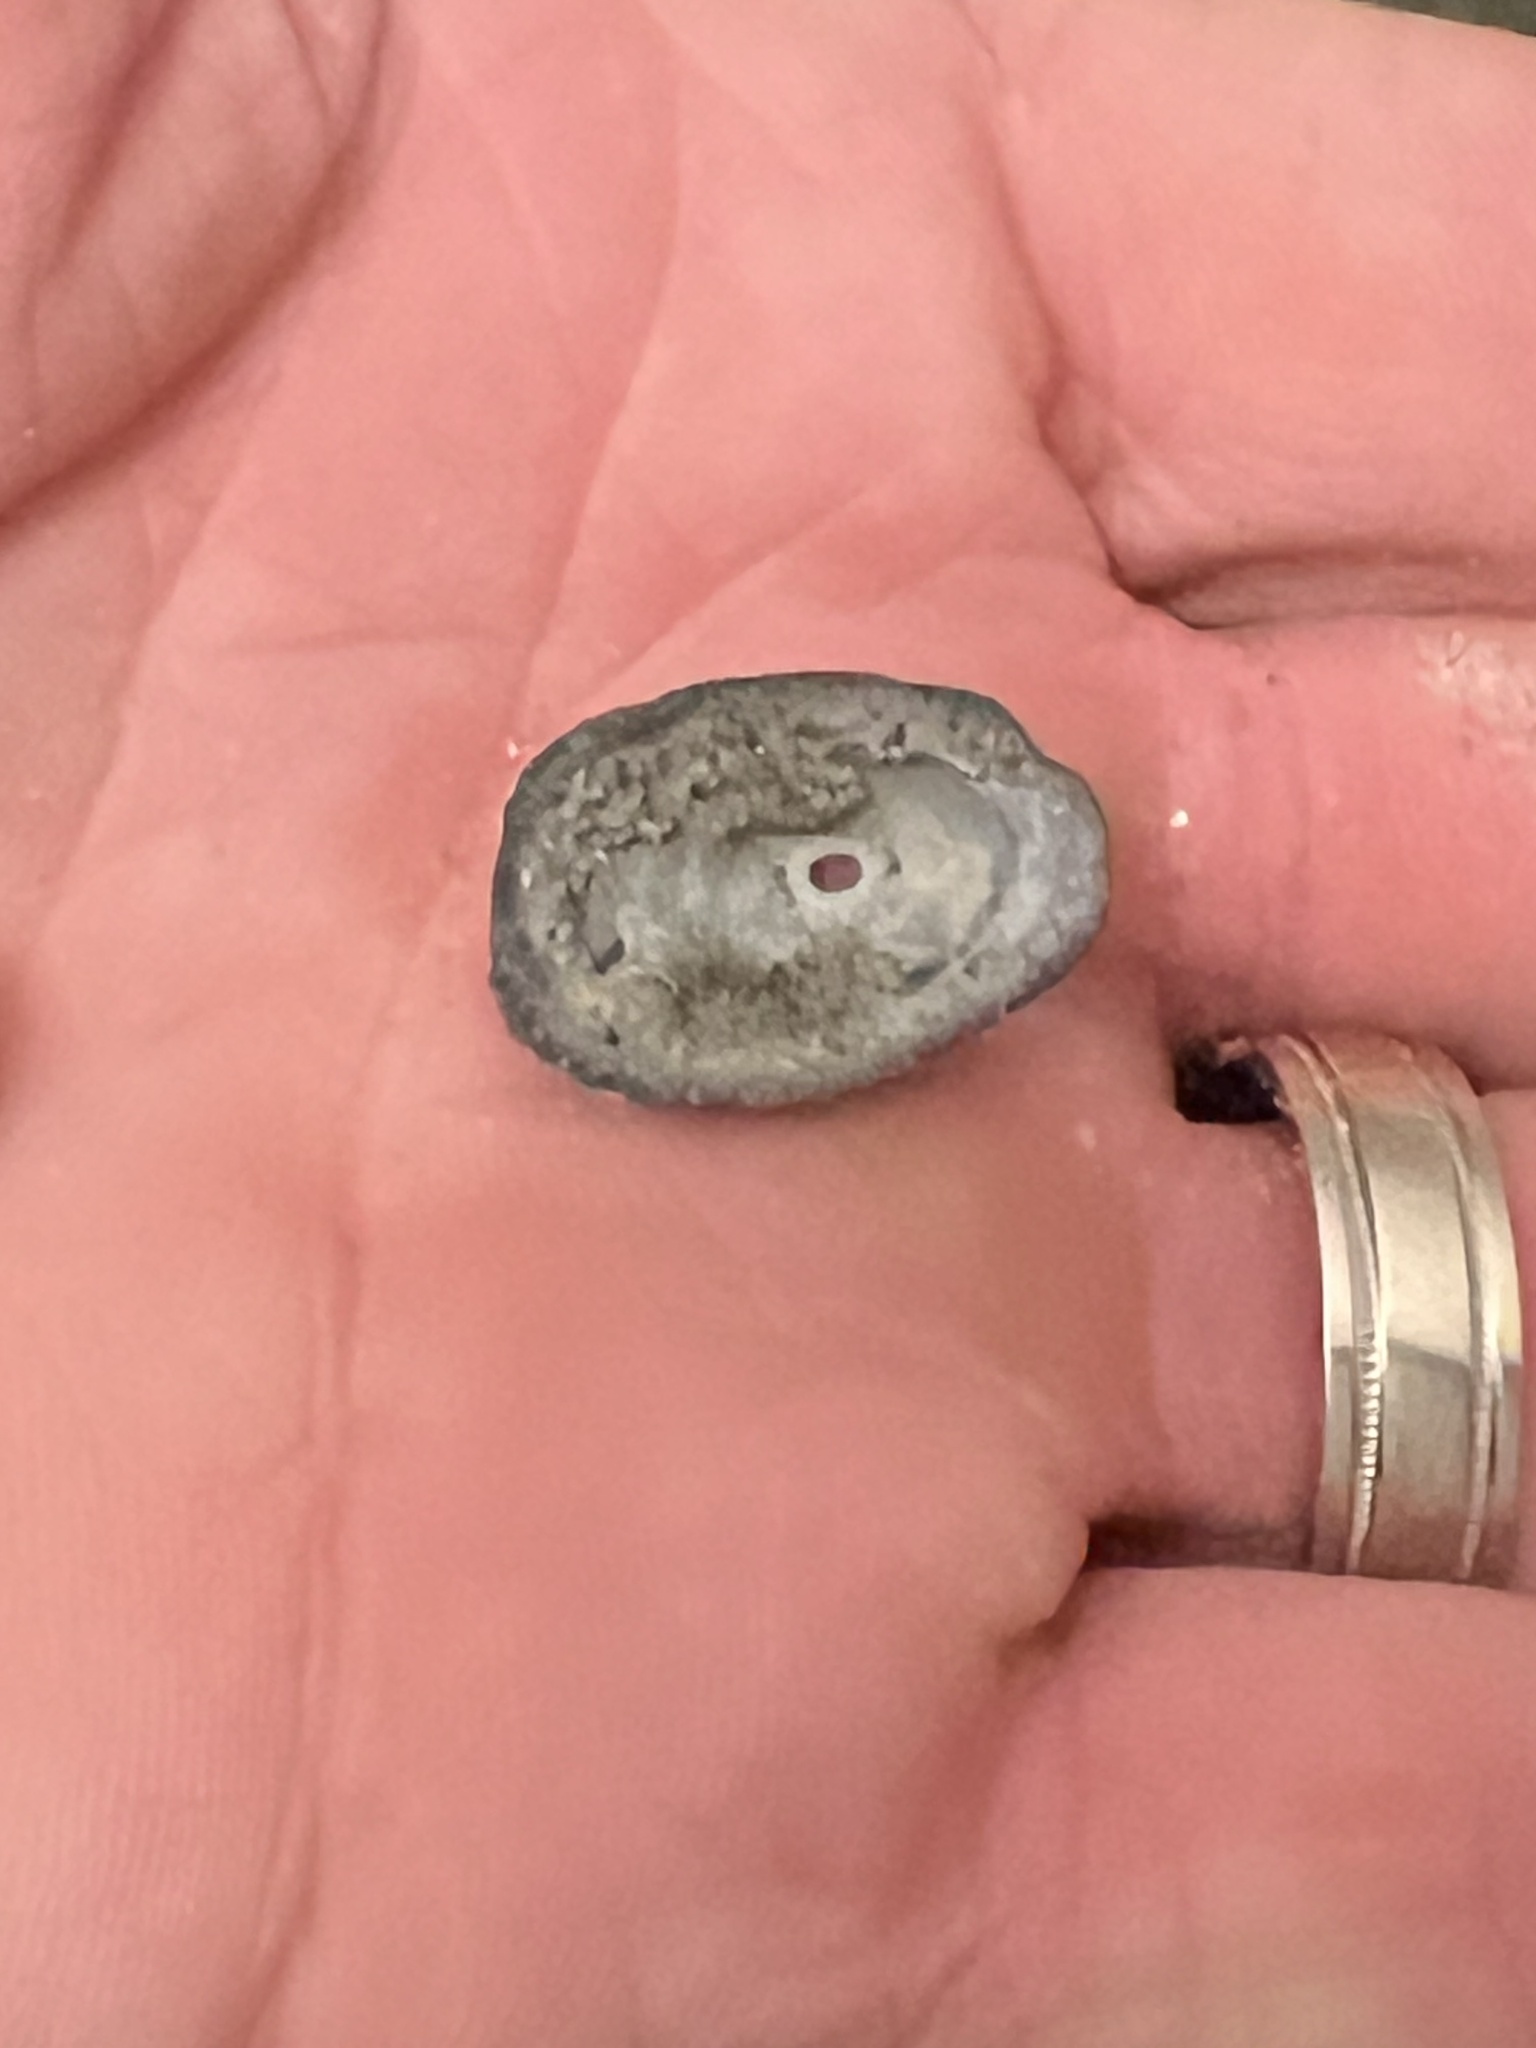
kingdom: Animalia
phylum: Mollusca
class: Gastropoda
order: Lepetellida
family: Fissurellidae
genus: Diodora
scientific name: Diodora aspera
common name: Rough keyhole limpet
